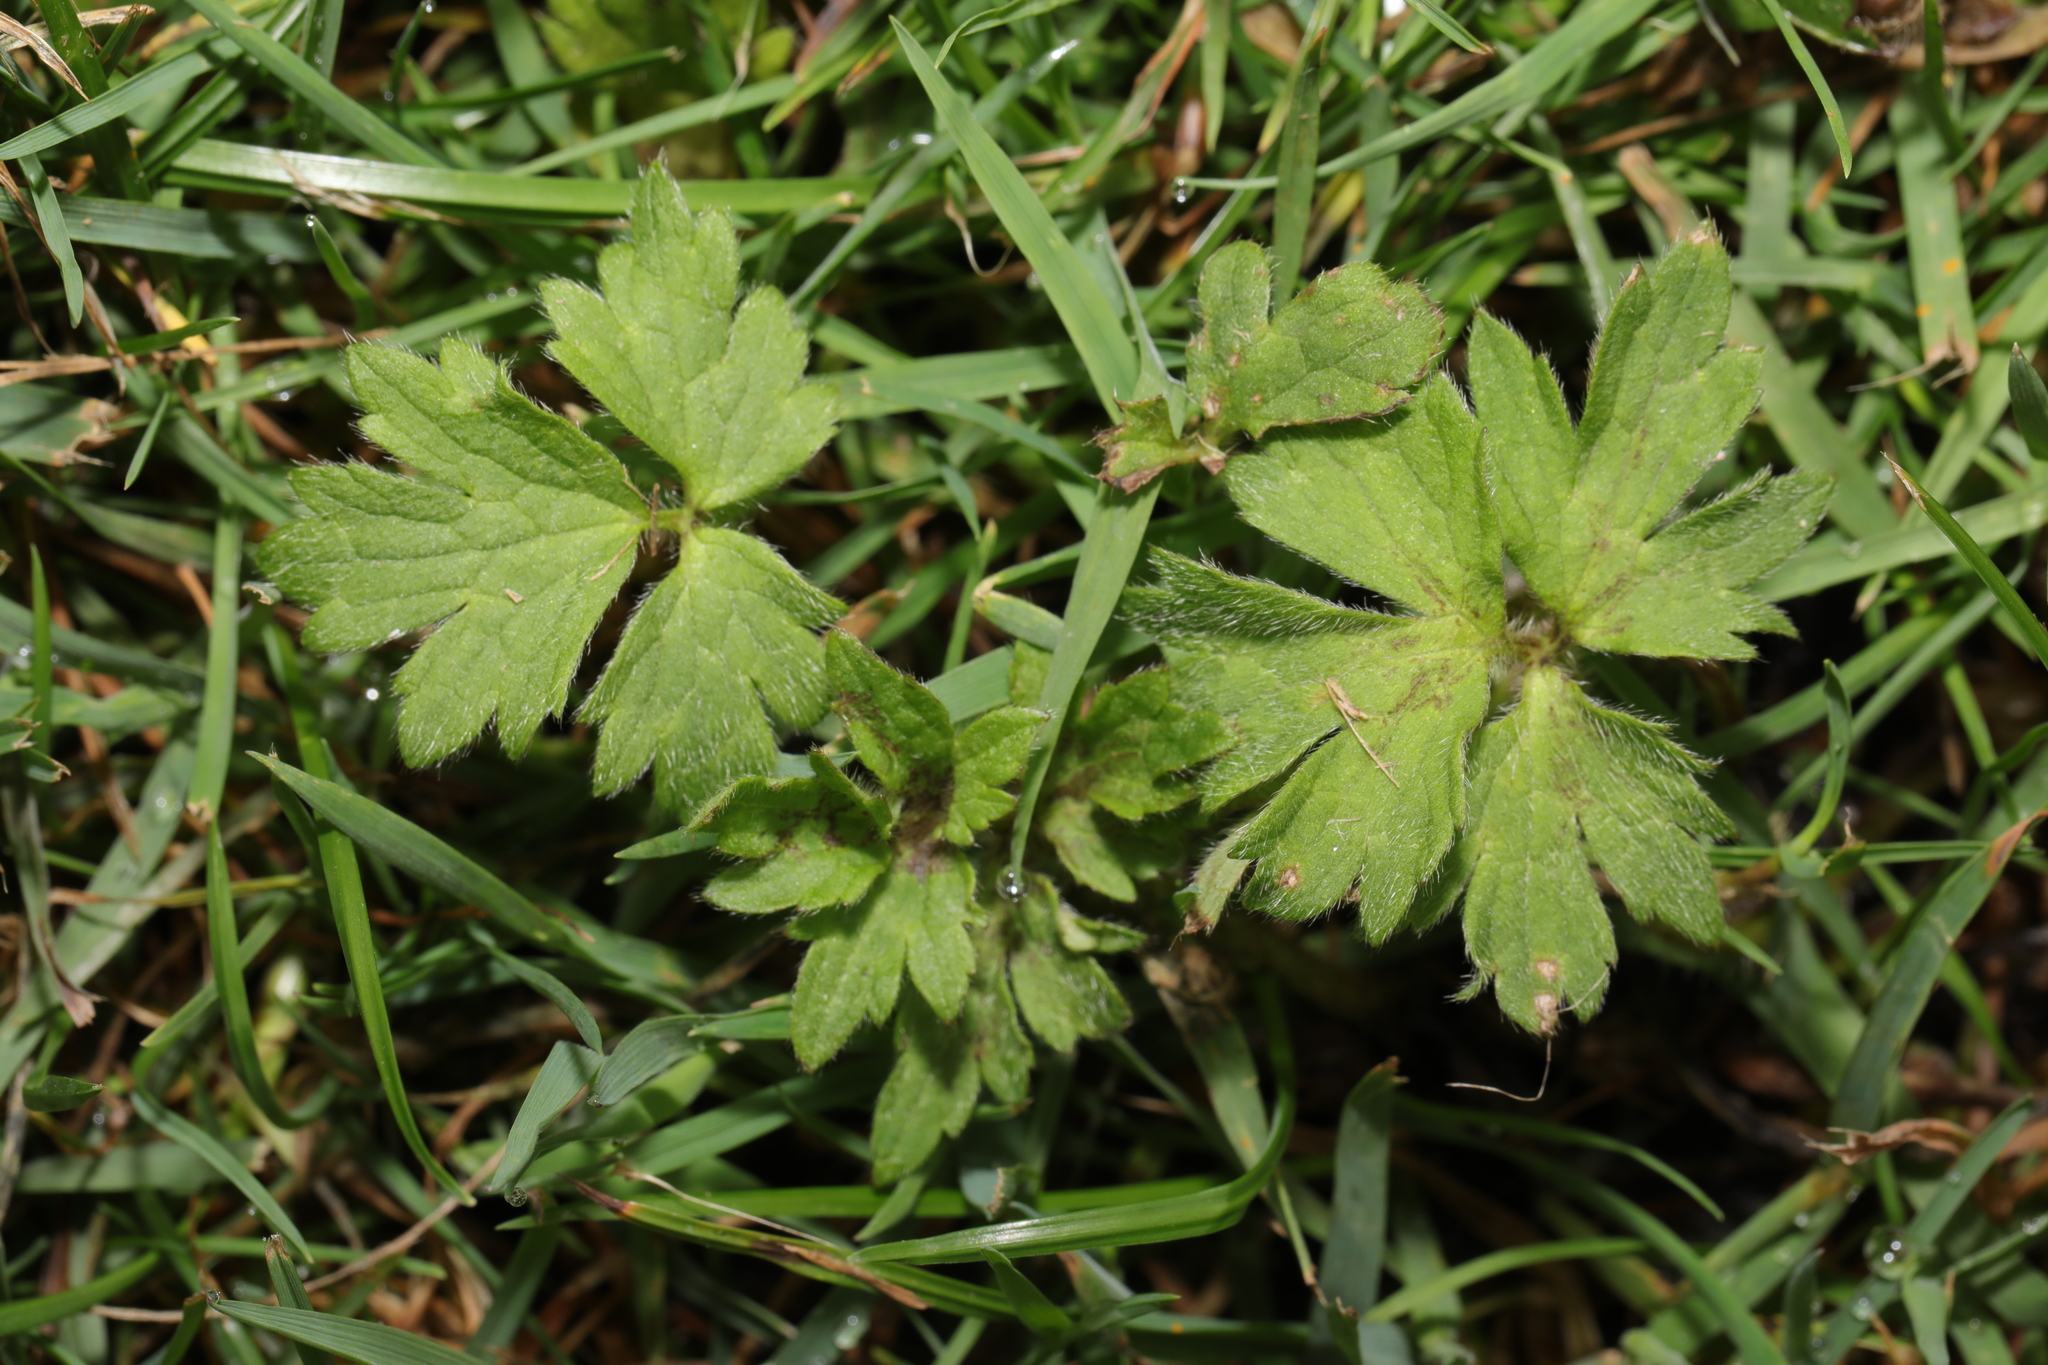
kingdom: Plantae
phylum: Tracheophyta
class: Magnoliopsida
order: Ranunculales
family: Ranunculaceae
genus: Ranunculus
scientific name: Ranunculus repens
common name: Creeping buttercup
